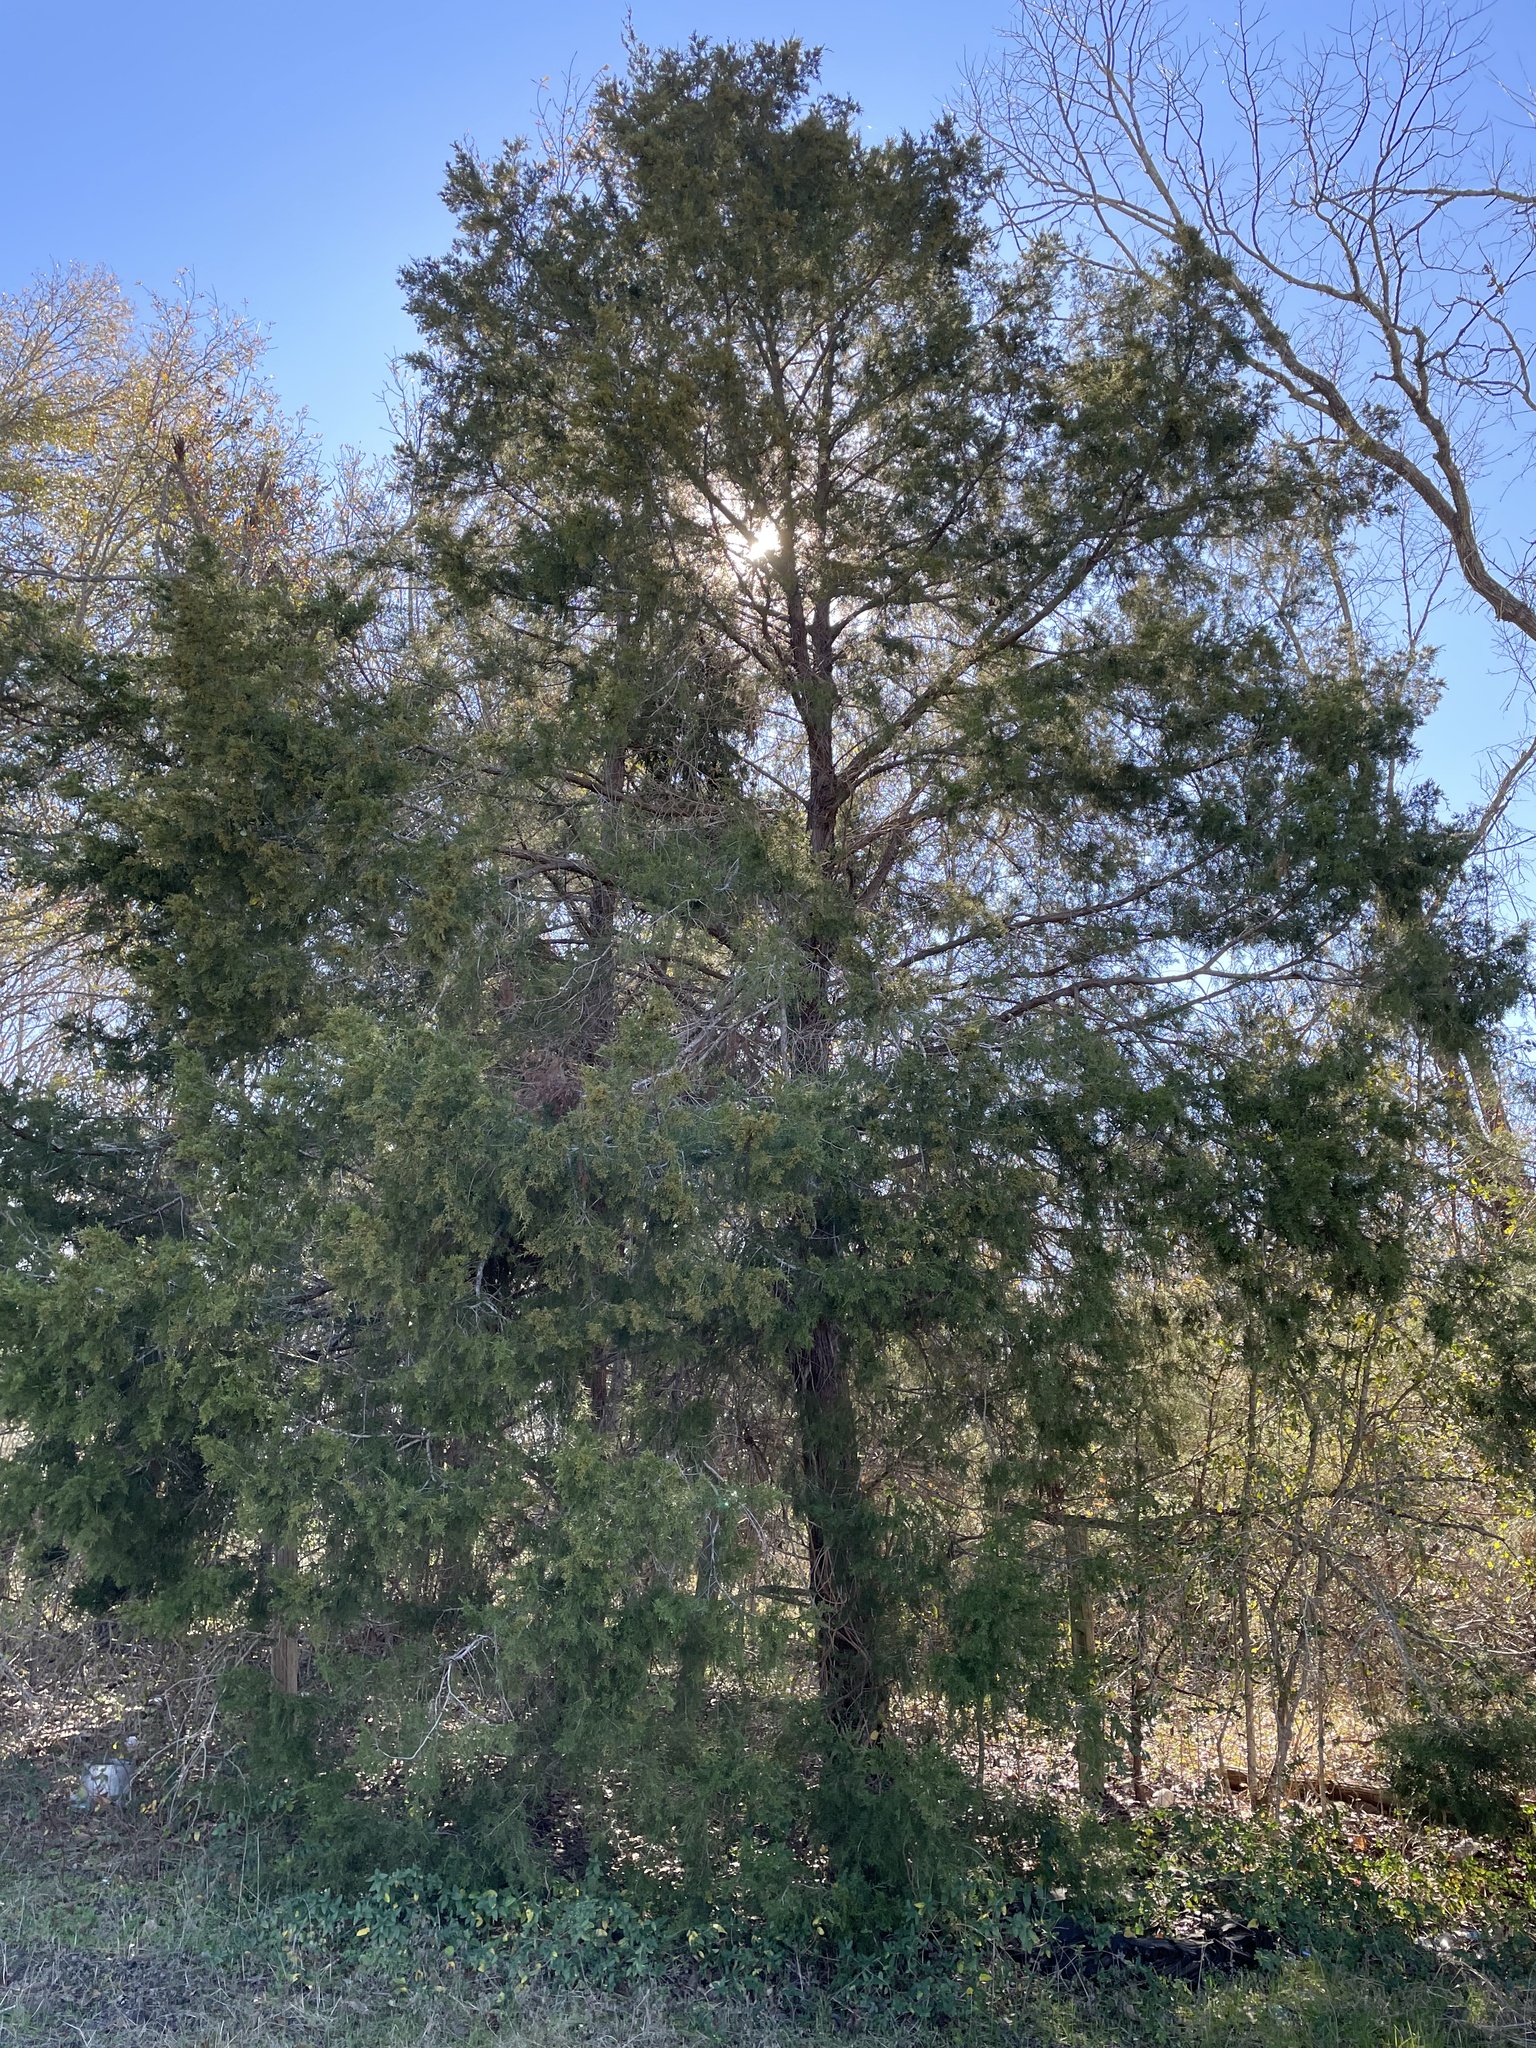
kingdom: Plantae
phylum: Tracheophyta
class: Pinopsida
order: Pinales
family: Cupressaceae
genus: Juniperus
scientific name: Juniperus virginiana
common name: Red juniper
